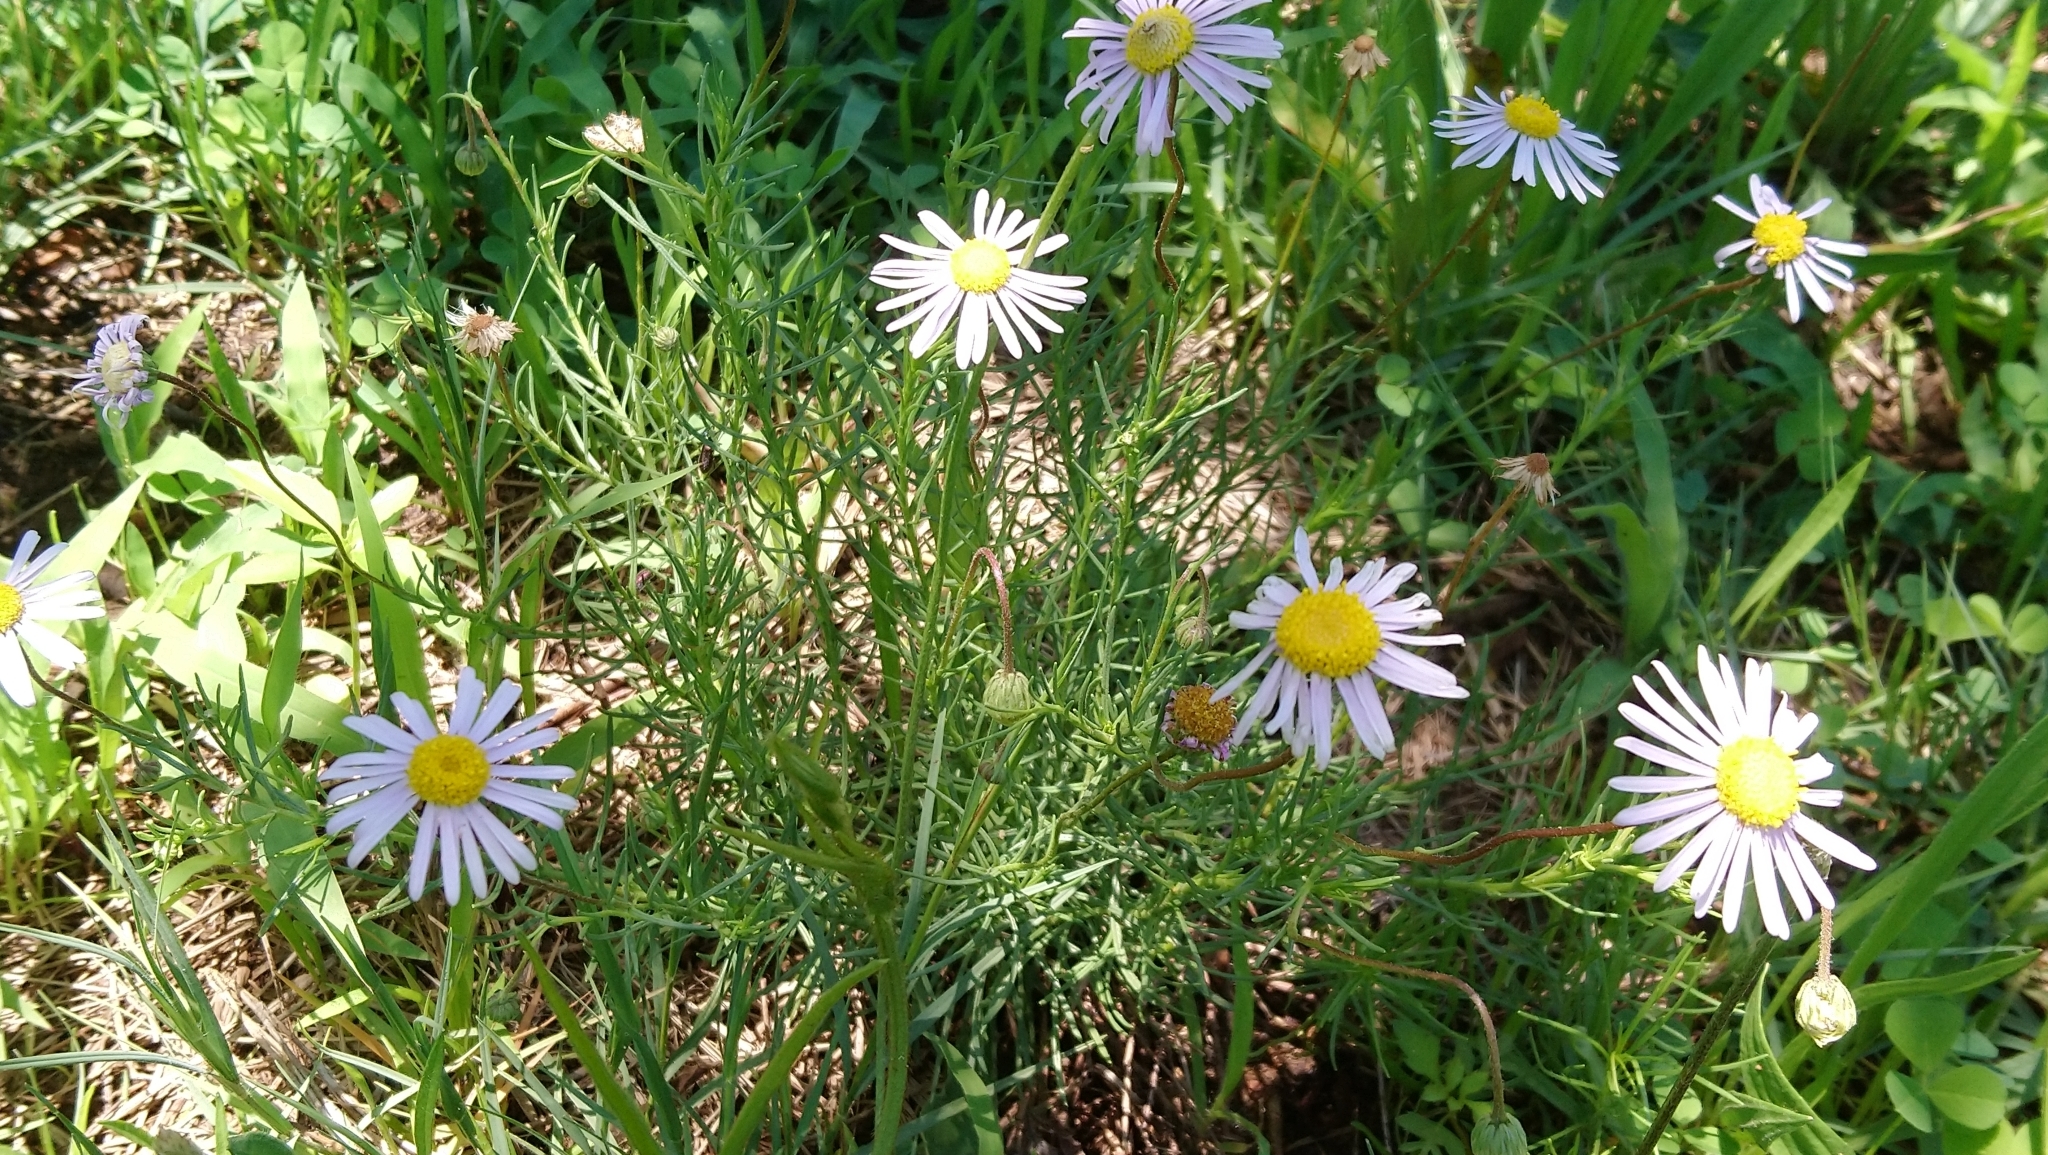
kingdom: Plantae
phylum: Tracheophyta
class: Magnoliopsida
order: Asterales
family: Asteraceae
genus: Felicia
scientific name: Felicia muricata
